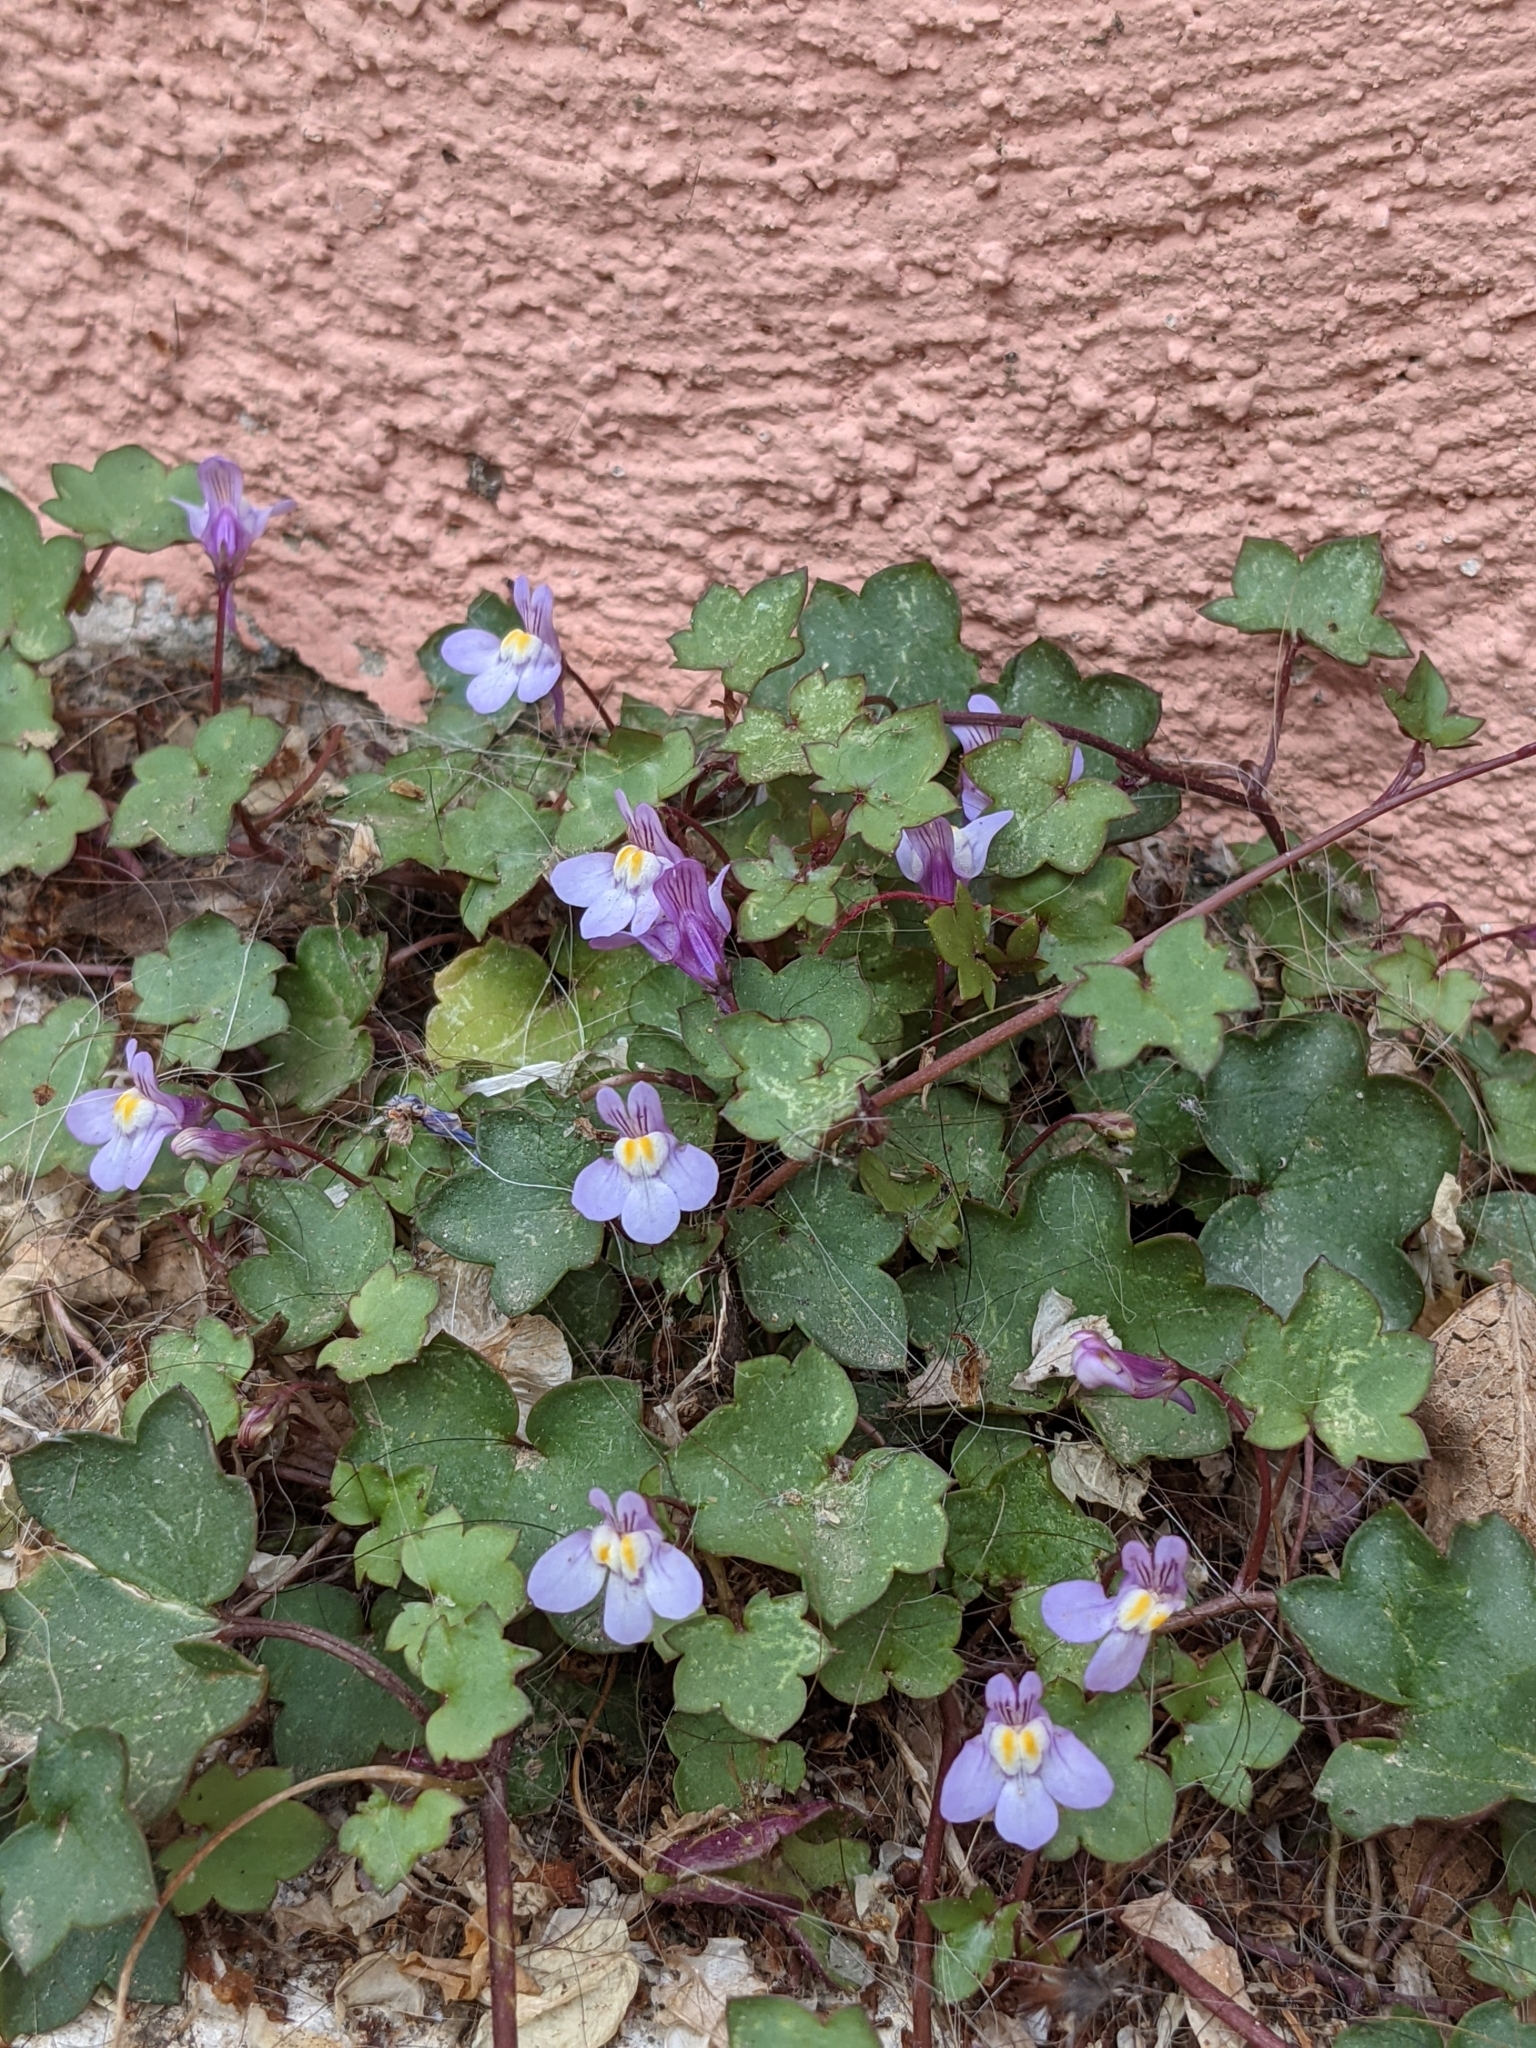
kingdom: Plantae
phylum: Tracheophyta
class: Magnoliopsida
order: Lamiales
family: Plantaginaceae
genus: Cymbalaria
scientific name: Cymbalaria muralis
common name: Ivy-leaved toadflax
